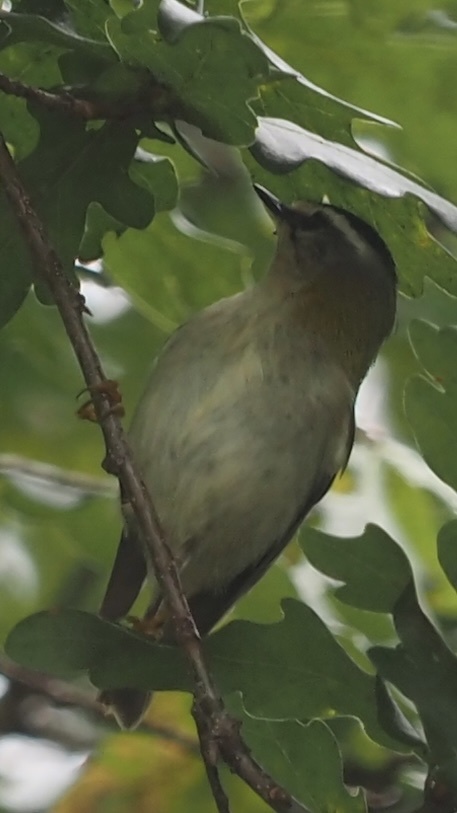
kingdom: Animalia
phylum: Chordata
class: Aves
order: Passeriformes
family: Regulidae
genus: Regulus
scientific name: Regulus ignicapilla
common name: Firecrest
